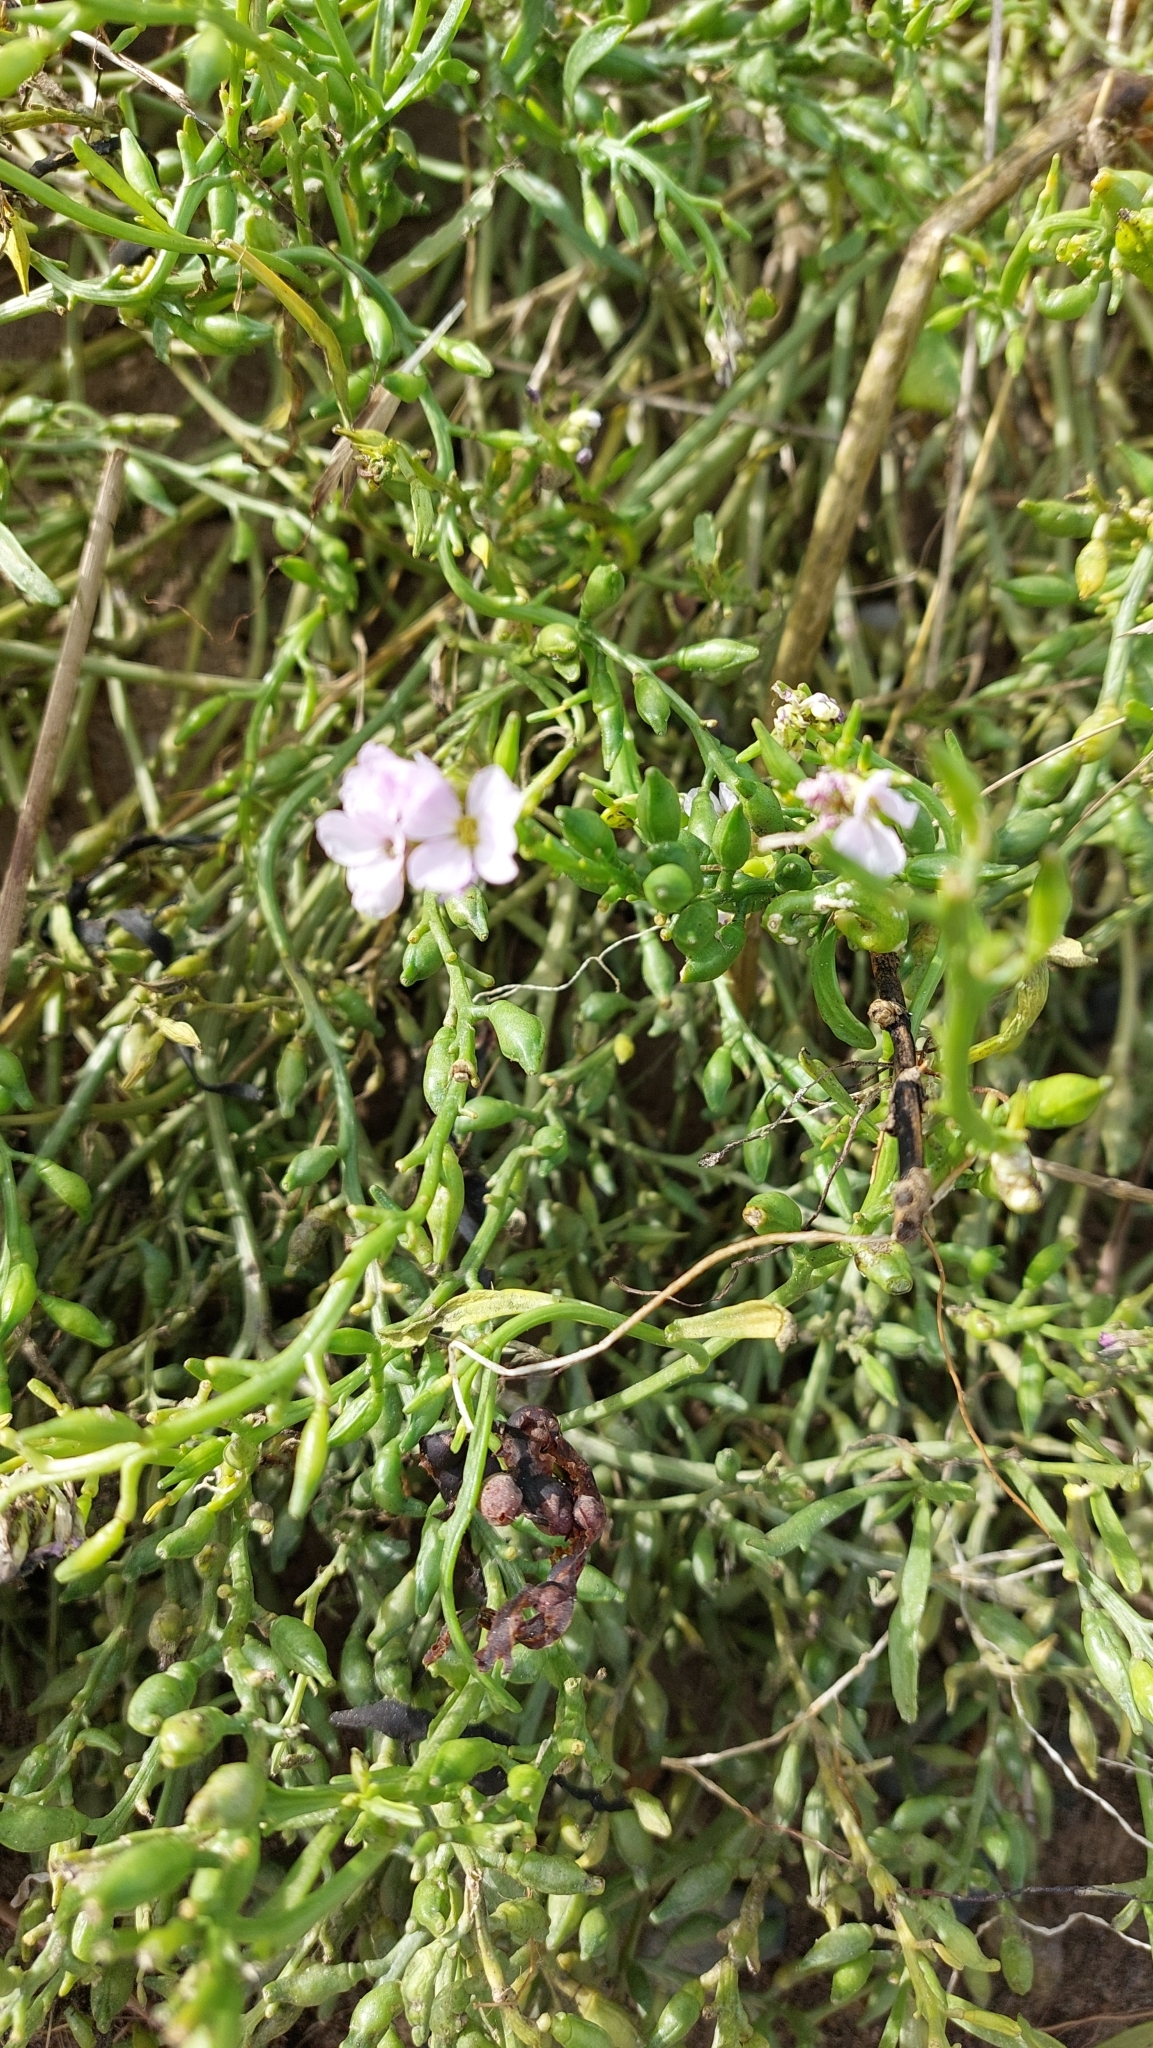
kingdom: Plantae
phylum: Tracheophyta
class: Magnoliopsida
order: Brassicales
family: Brassicaceae
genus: Cakile
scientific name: Cakile maritima
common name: Sea rocket
